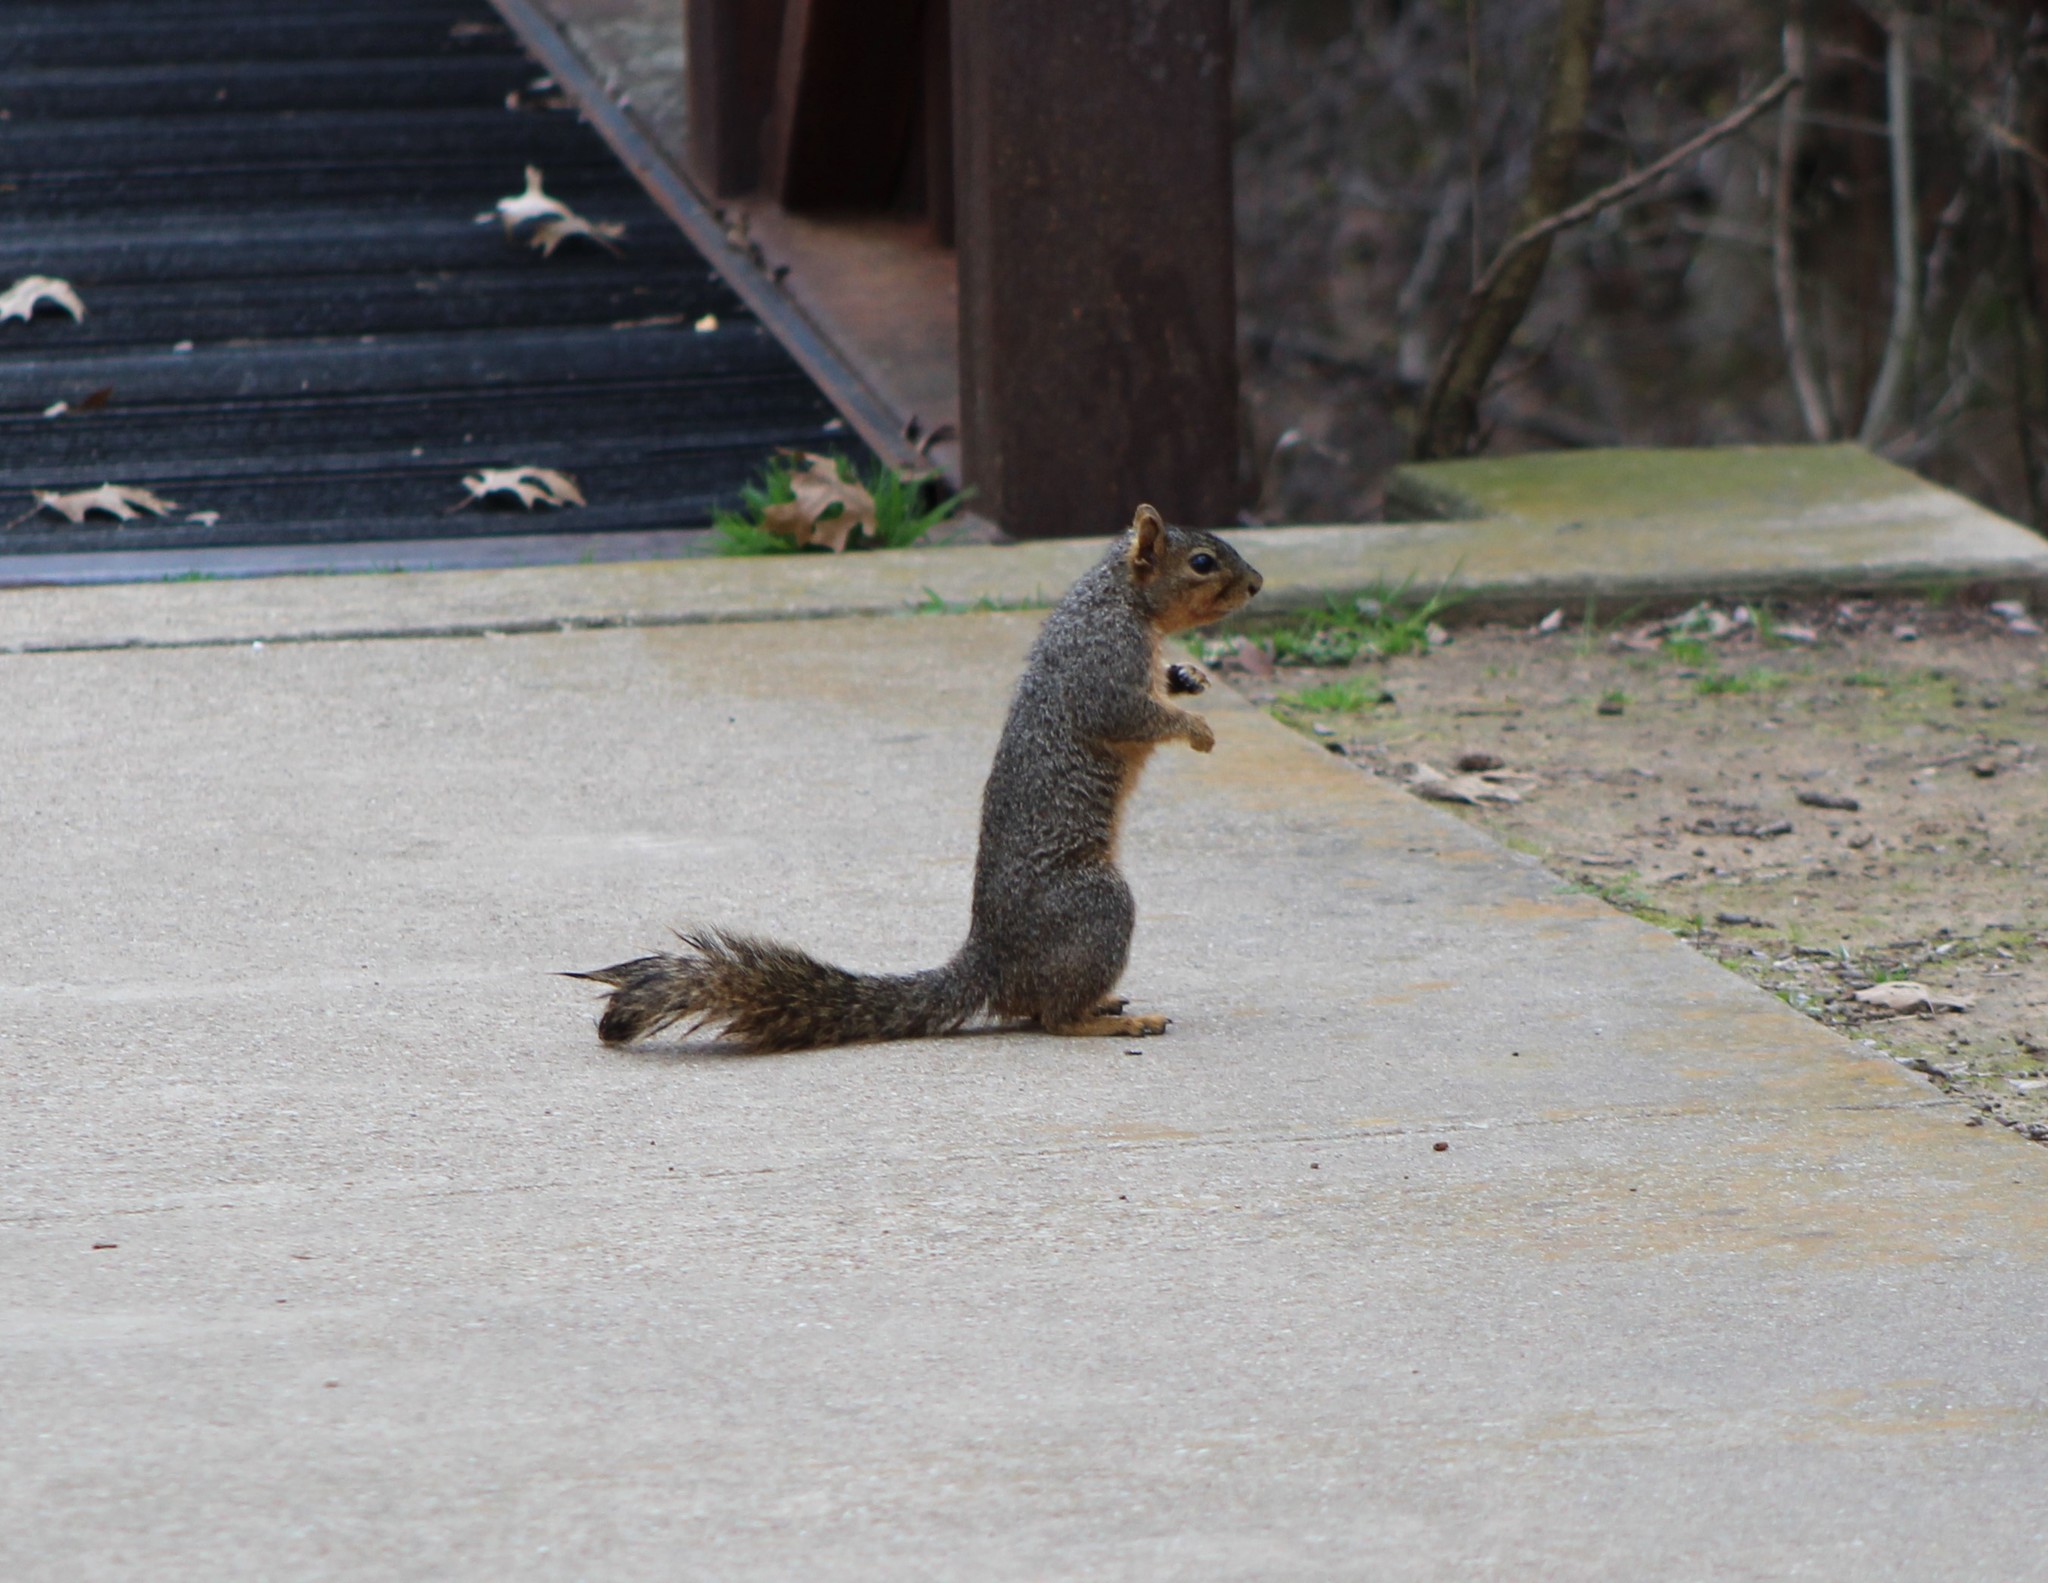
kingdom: Animalia
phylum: Chordata
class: Mammalia
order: Rodentia
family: Sciuridae
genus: Sciurus
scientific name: Sciurus niger
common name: Fox squirrel
